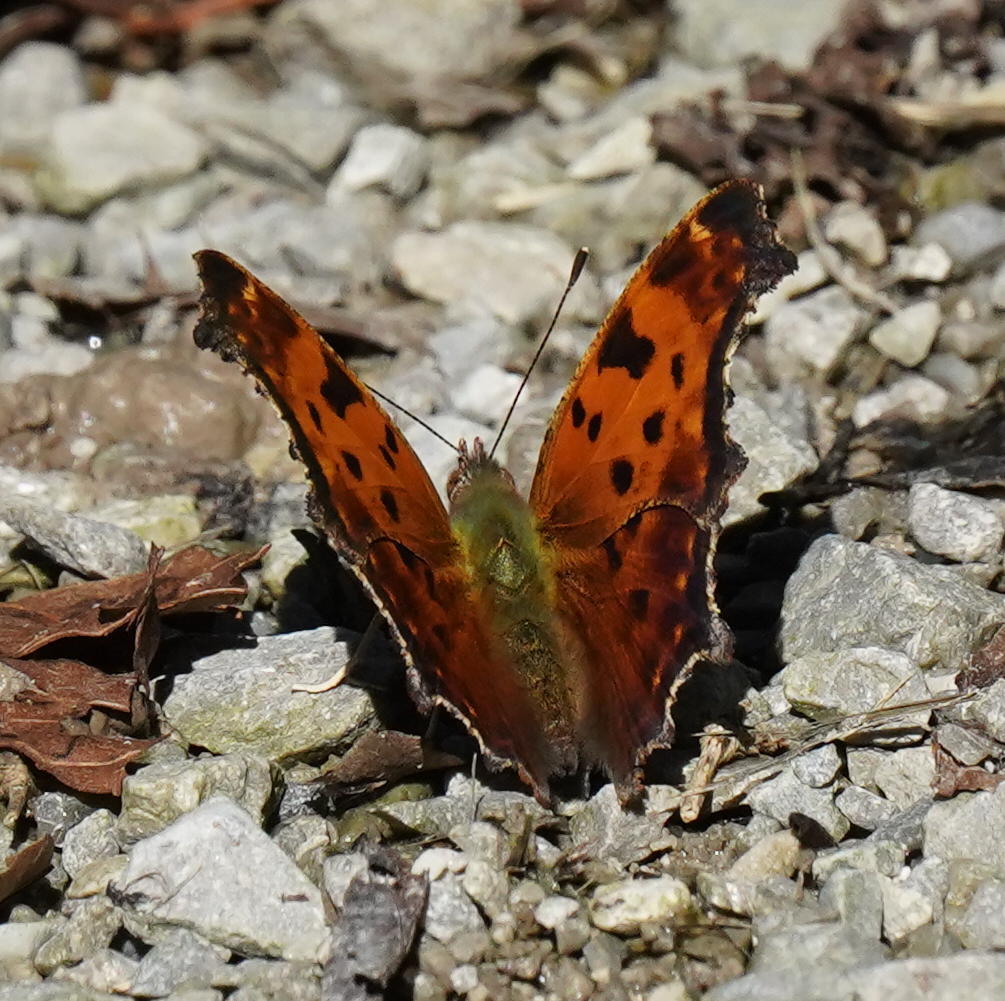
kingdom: Animalia
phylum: Arthropoda
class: Insecta
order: Lepidoptera
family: Nymphalidae
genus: Polygonia
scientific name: Polygonia comma
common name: Eastern comma
